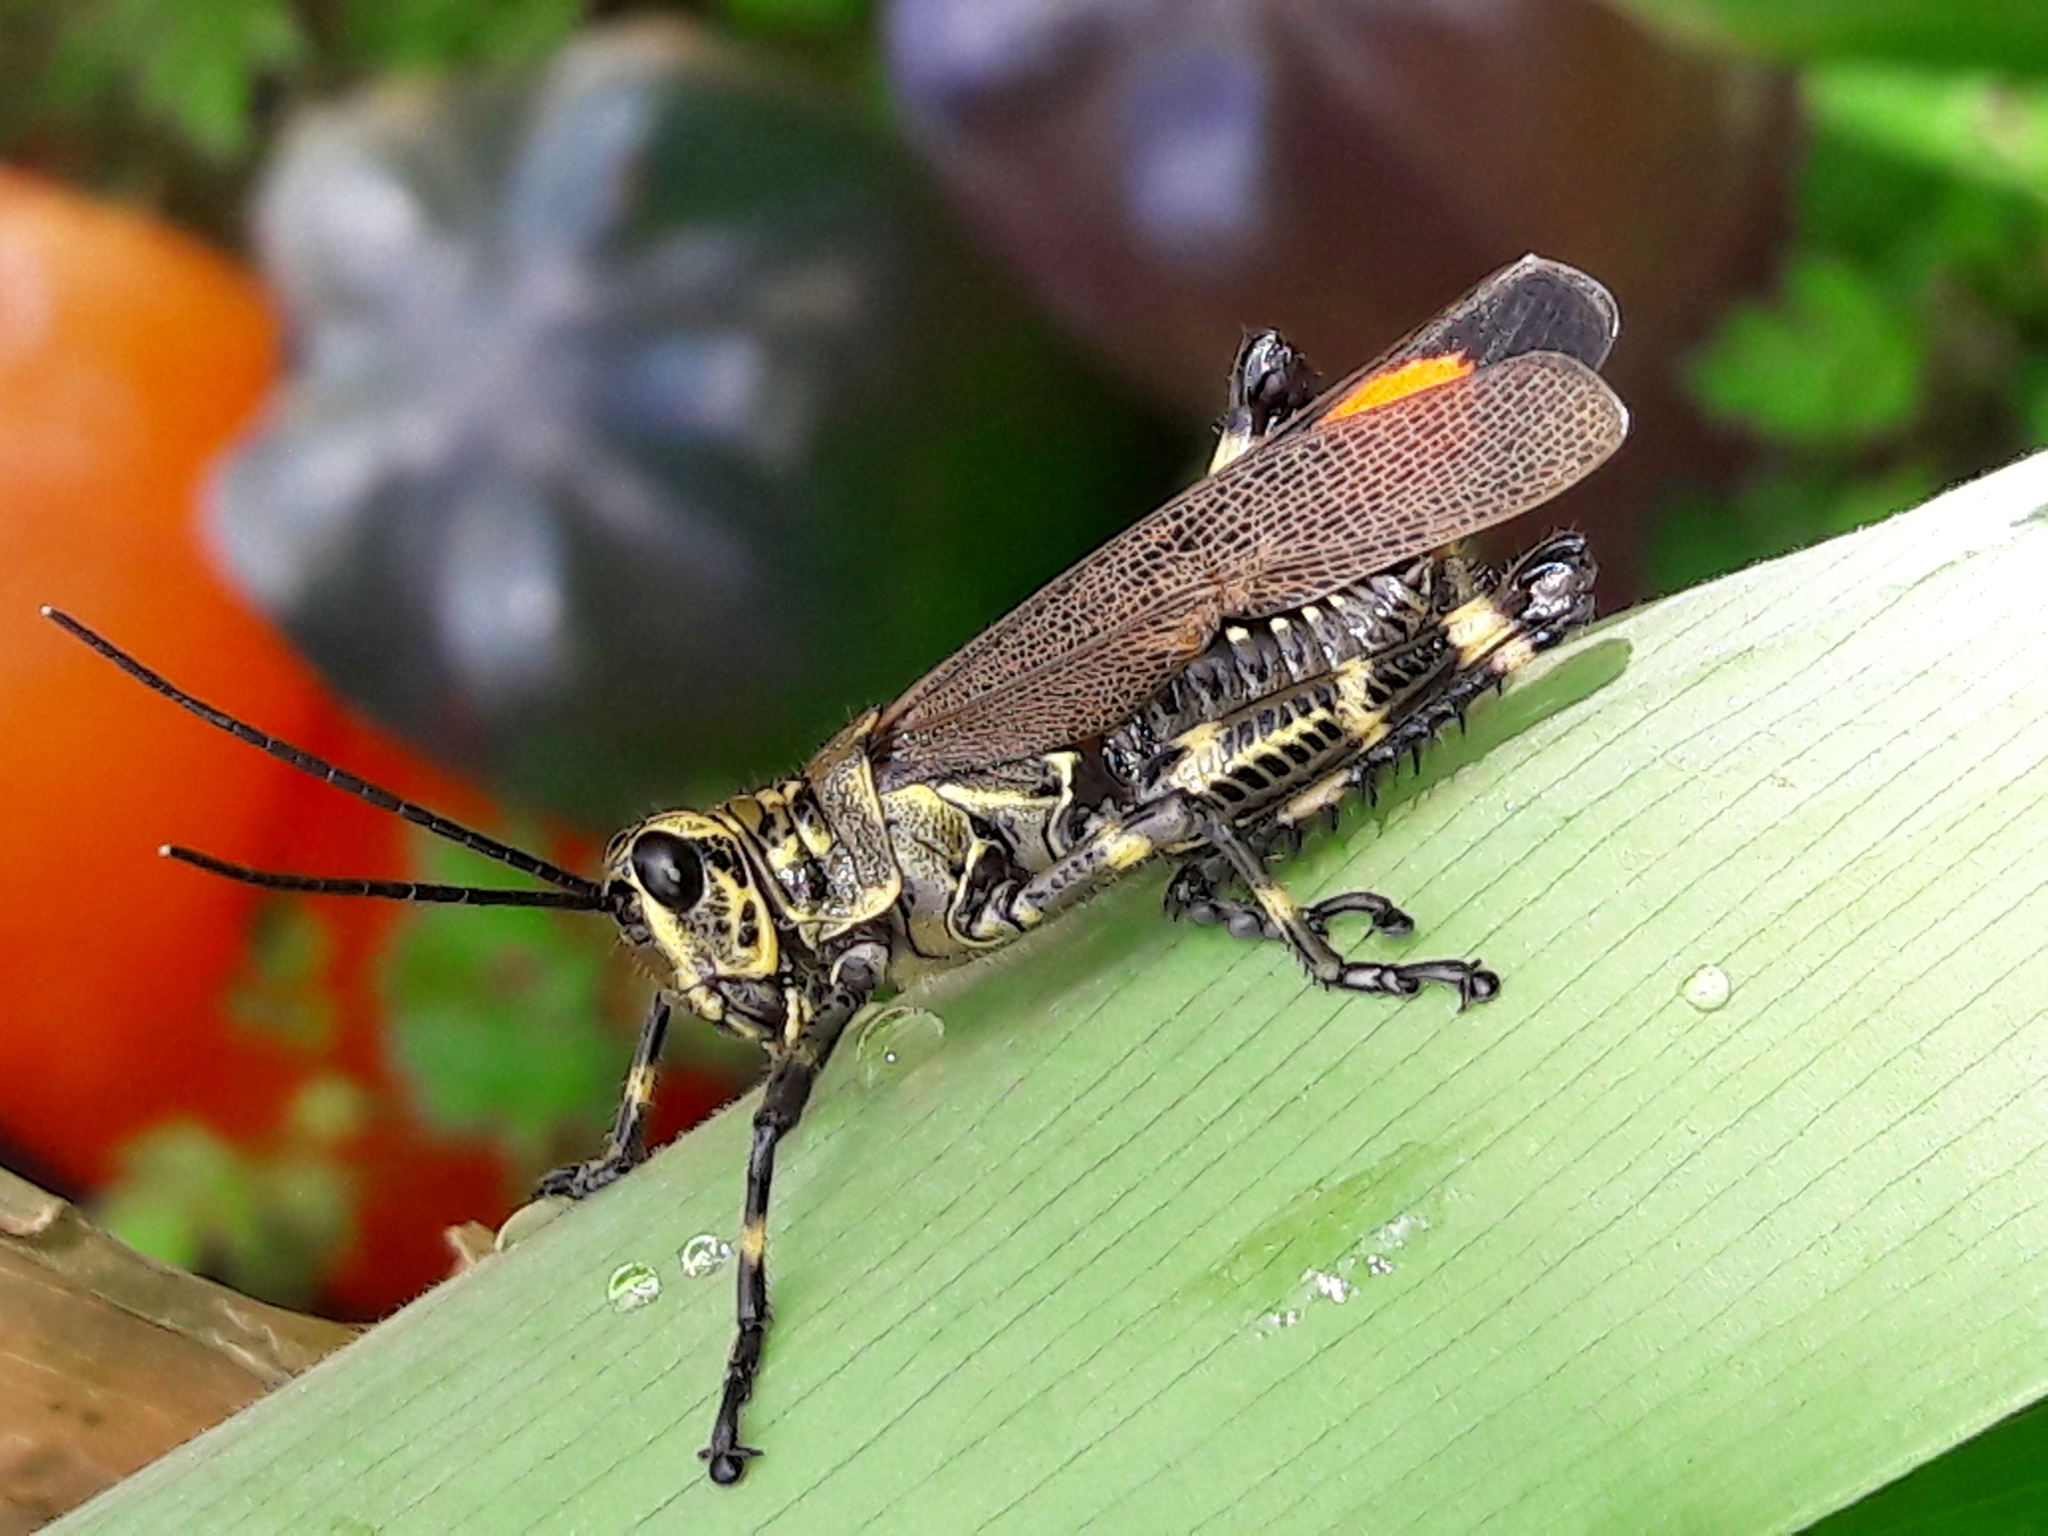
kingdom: Animalia
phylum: Arthropoda
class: Insecta
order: Orthoptera
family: Romaleidae
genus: Chromacris
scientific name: Chromacris speciosa
